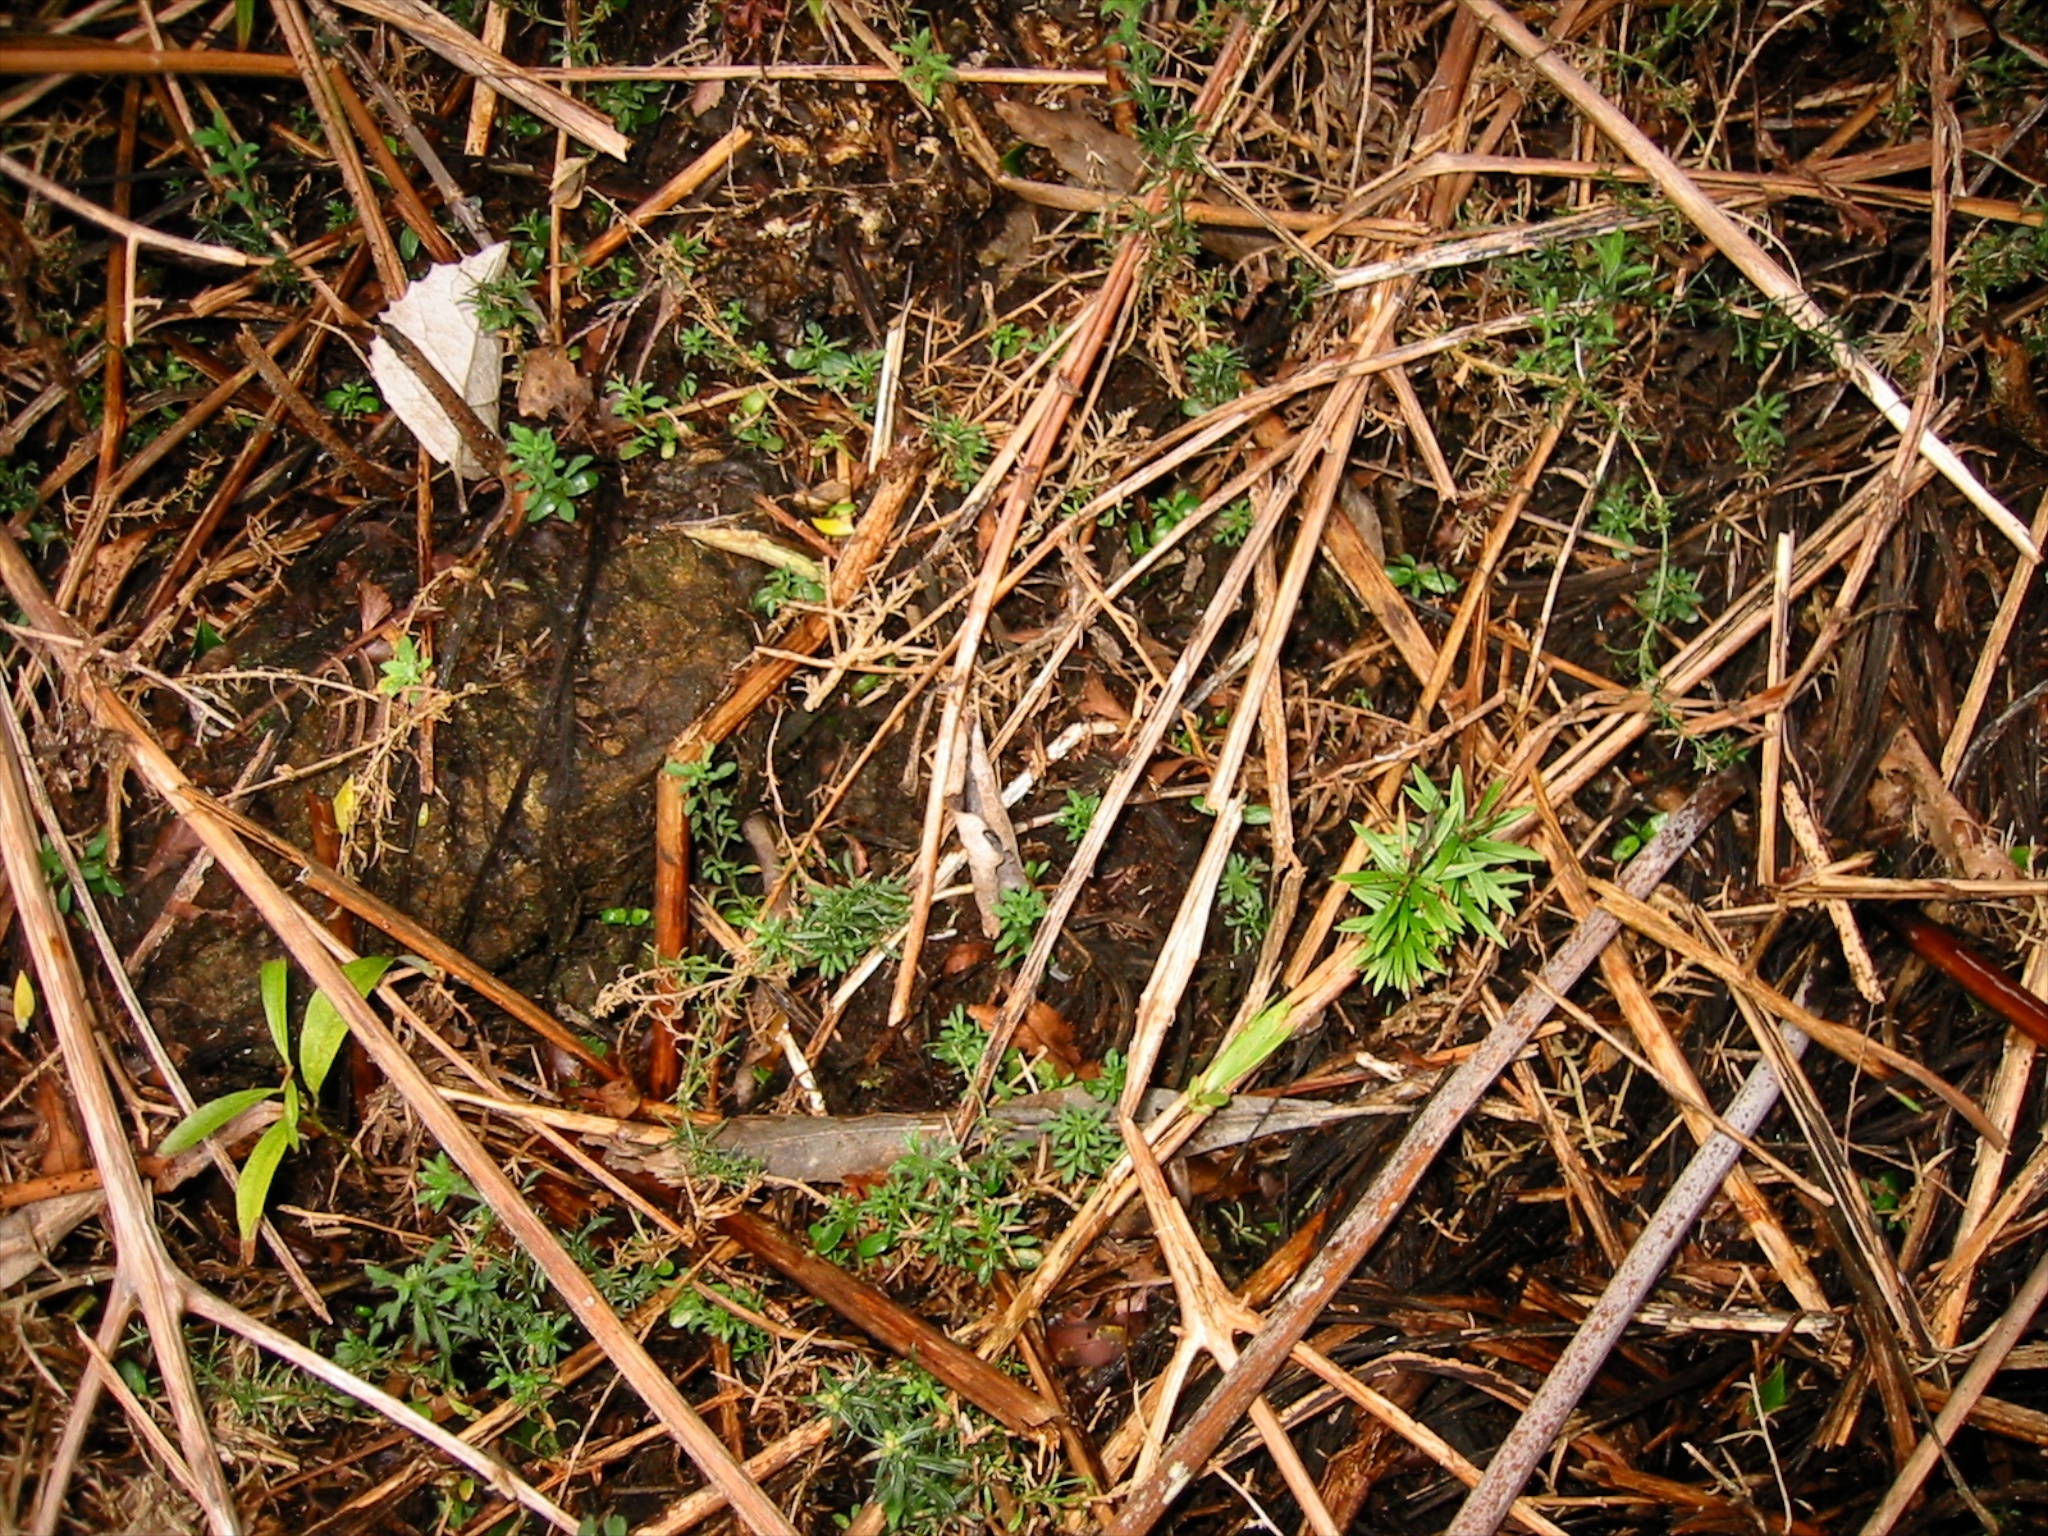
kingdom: Plantae
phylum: Tracheophyta
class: Magnoliopsida
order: Fabales
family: Fabaceae
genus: Ulex
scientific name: Ulex europaeus
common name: Common gorse
